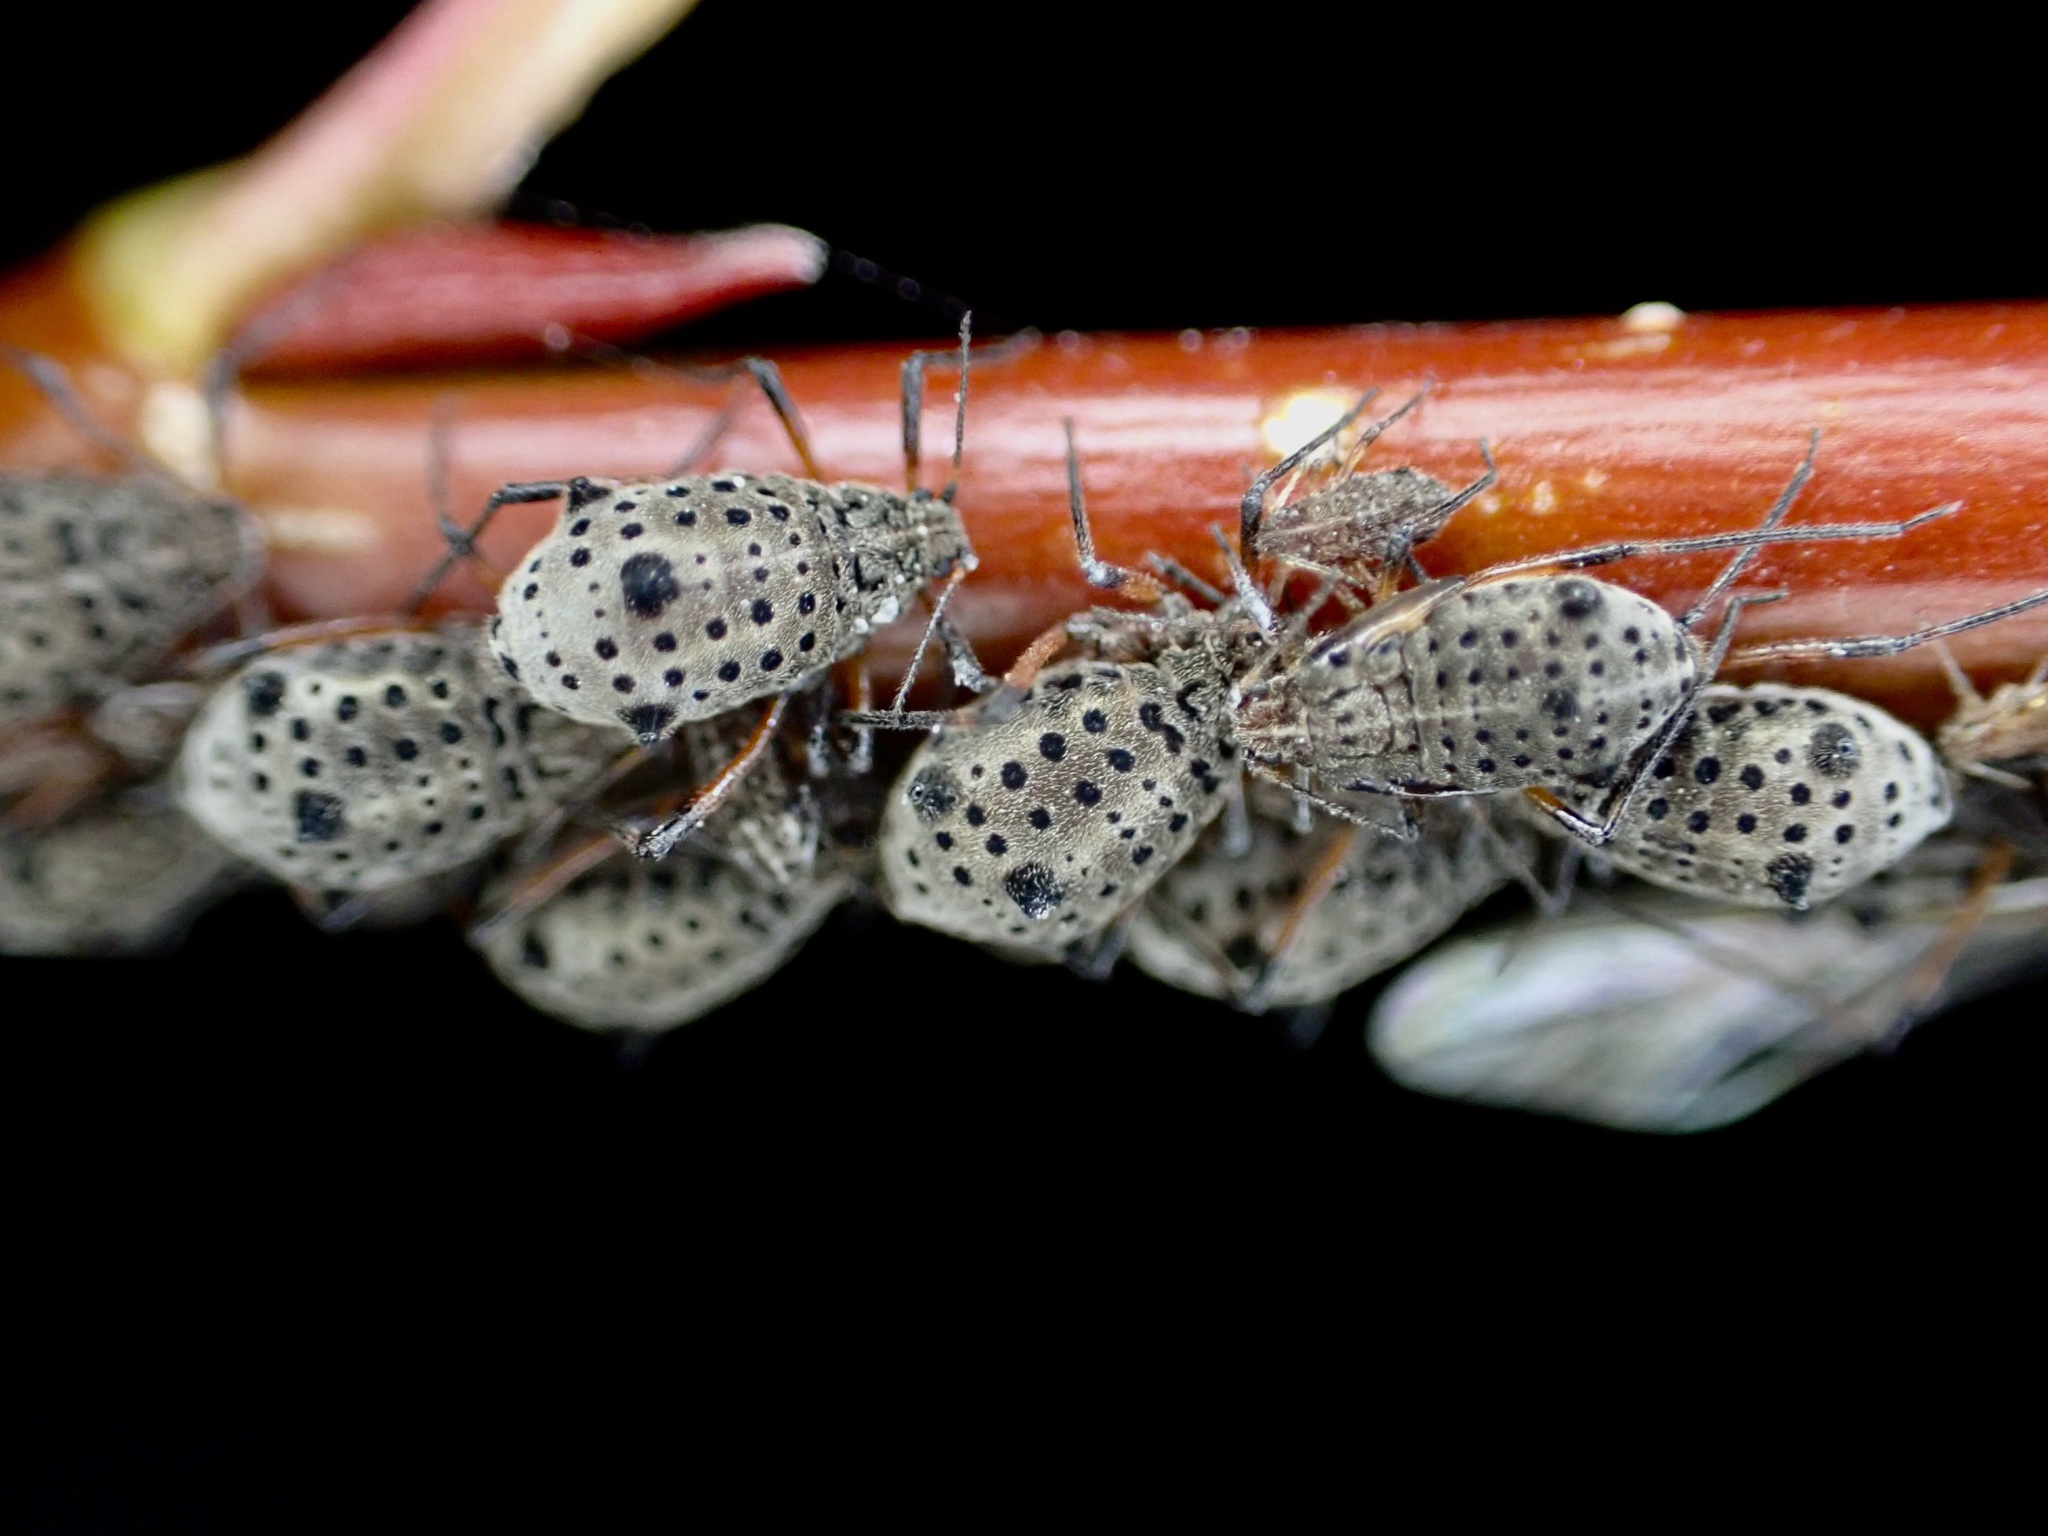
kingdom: Animalia
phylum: Arthropoda
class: Insecta
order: Hemiptera
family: Aphididae
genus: Tuberolachnus
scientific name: Tuberolachnus salignus
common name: Giant willow aphid
